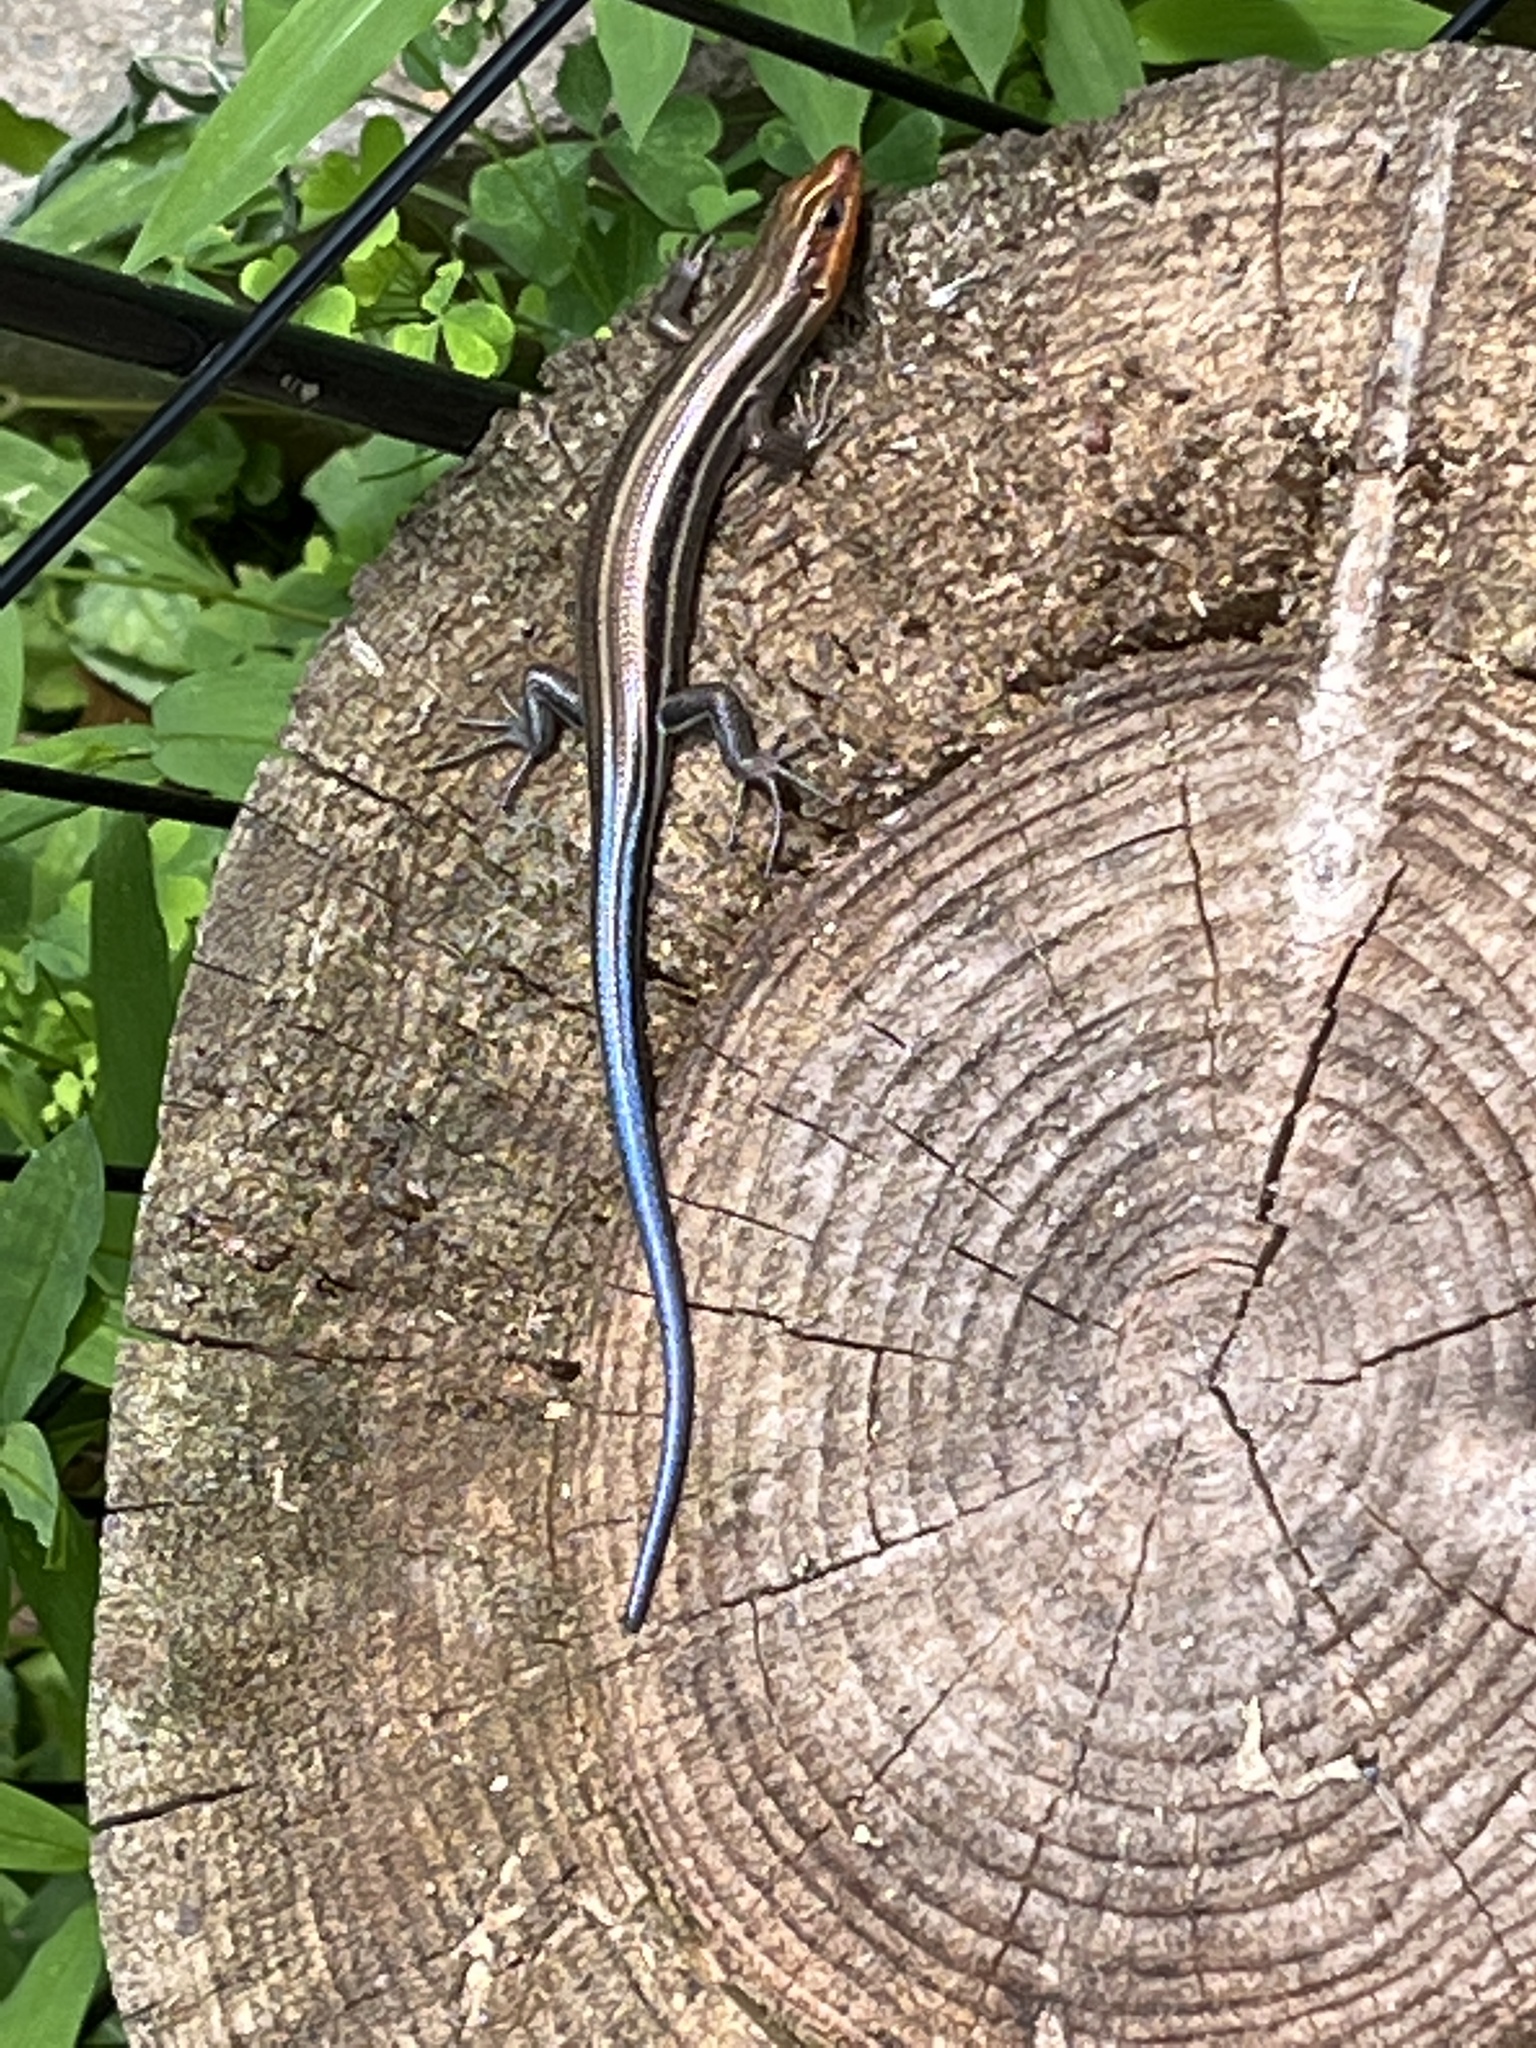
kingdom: Animalia
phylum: Chordata
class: Squamata
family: Scincidae
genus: Plestiodon
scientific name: Plestiodon fasciatus
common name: Five-lined skink
